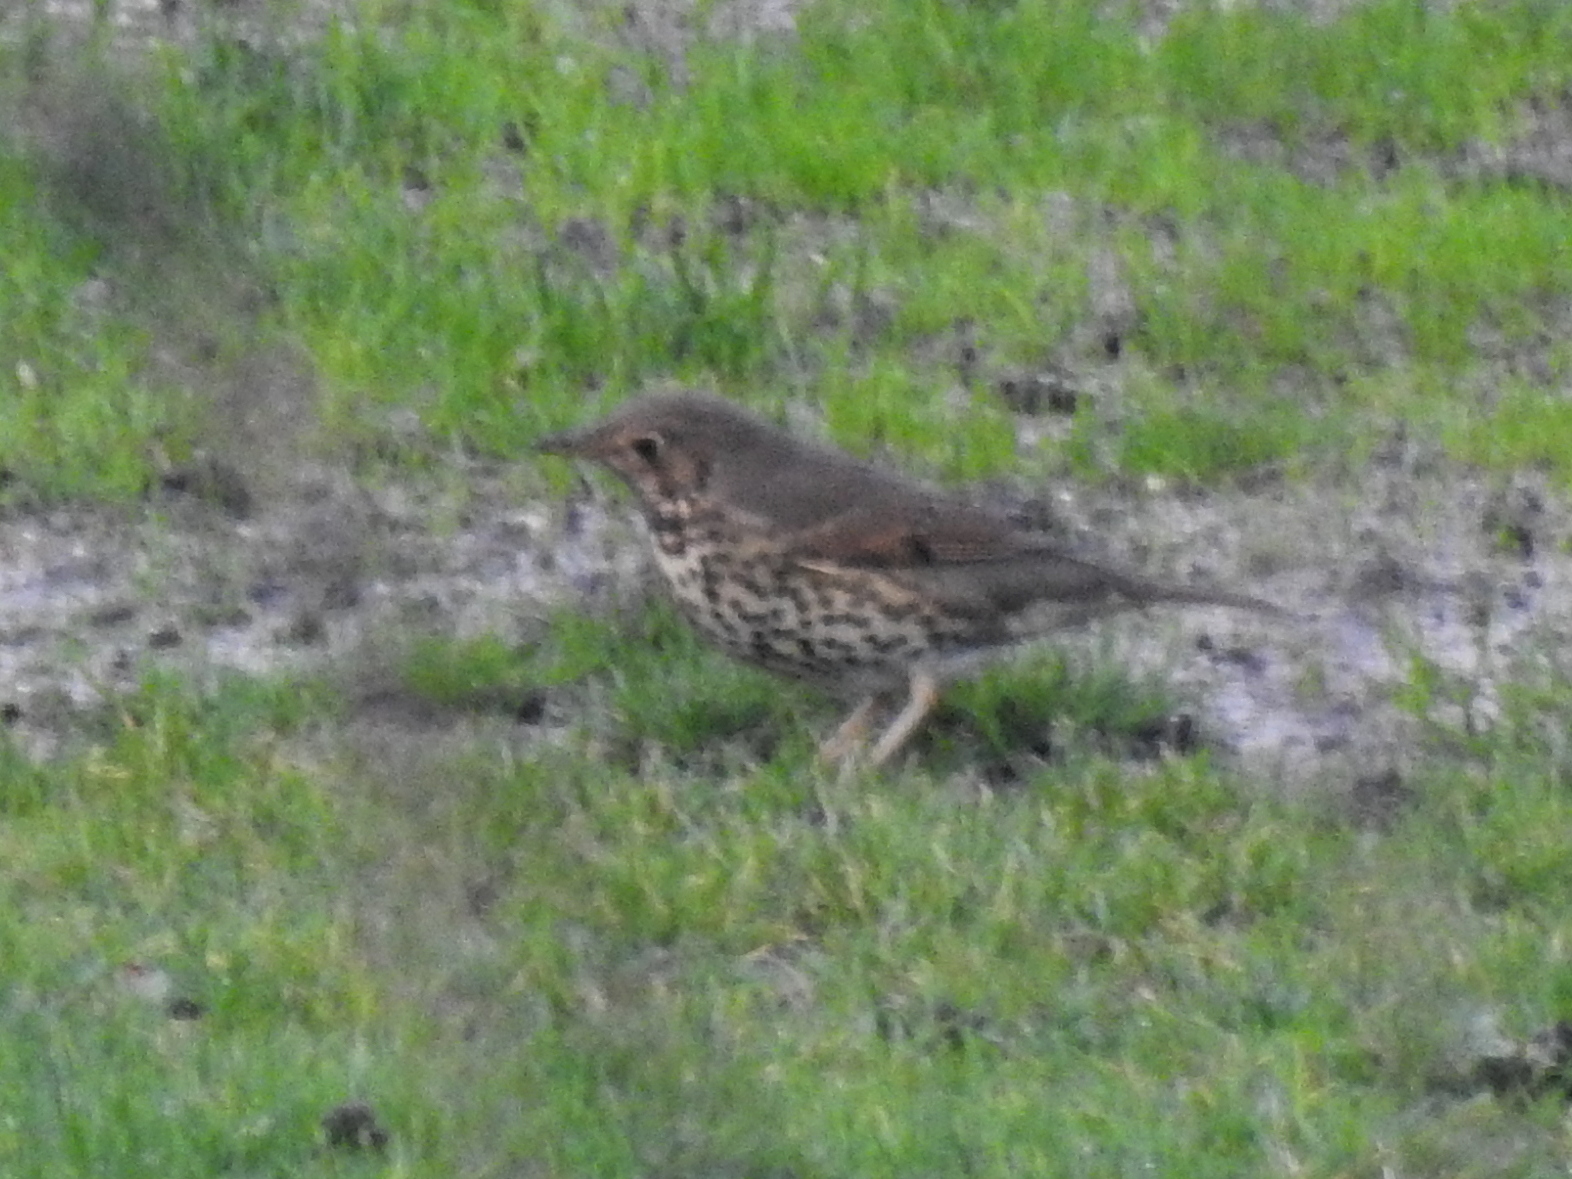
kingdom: Animalia
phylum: Chordata
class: Aves
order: Passeriformes
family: Turdidae
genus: Turdus
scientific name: Turdus philomelos
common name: Song thrush
